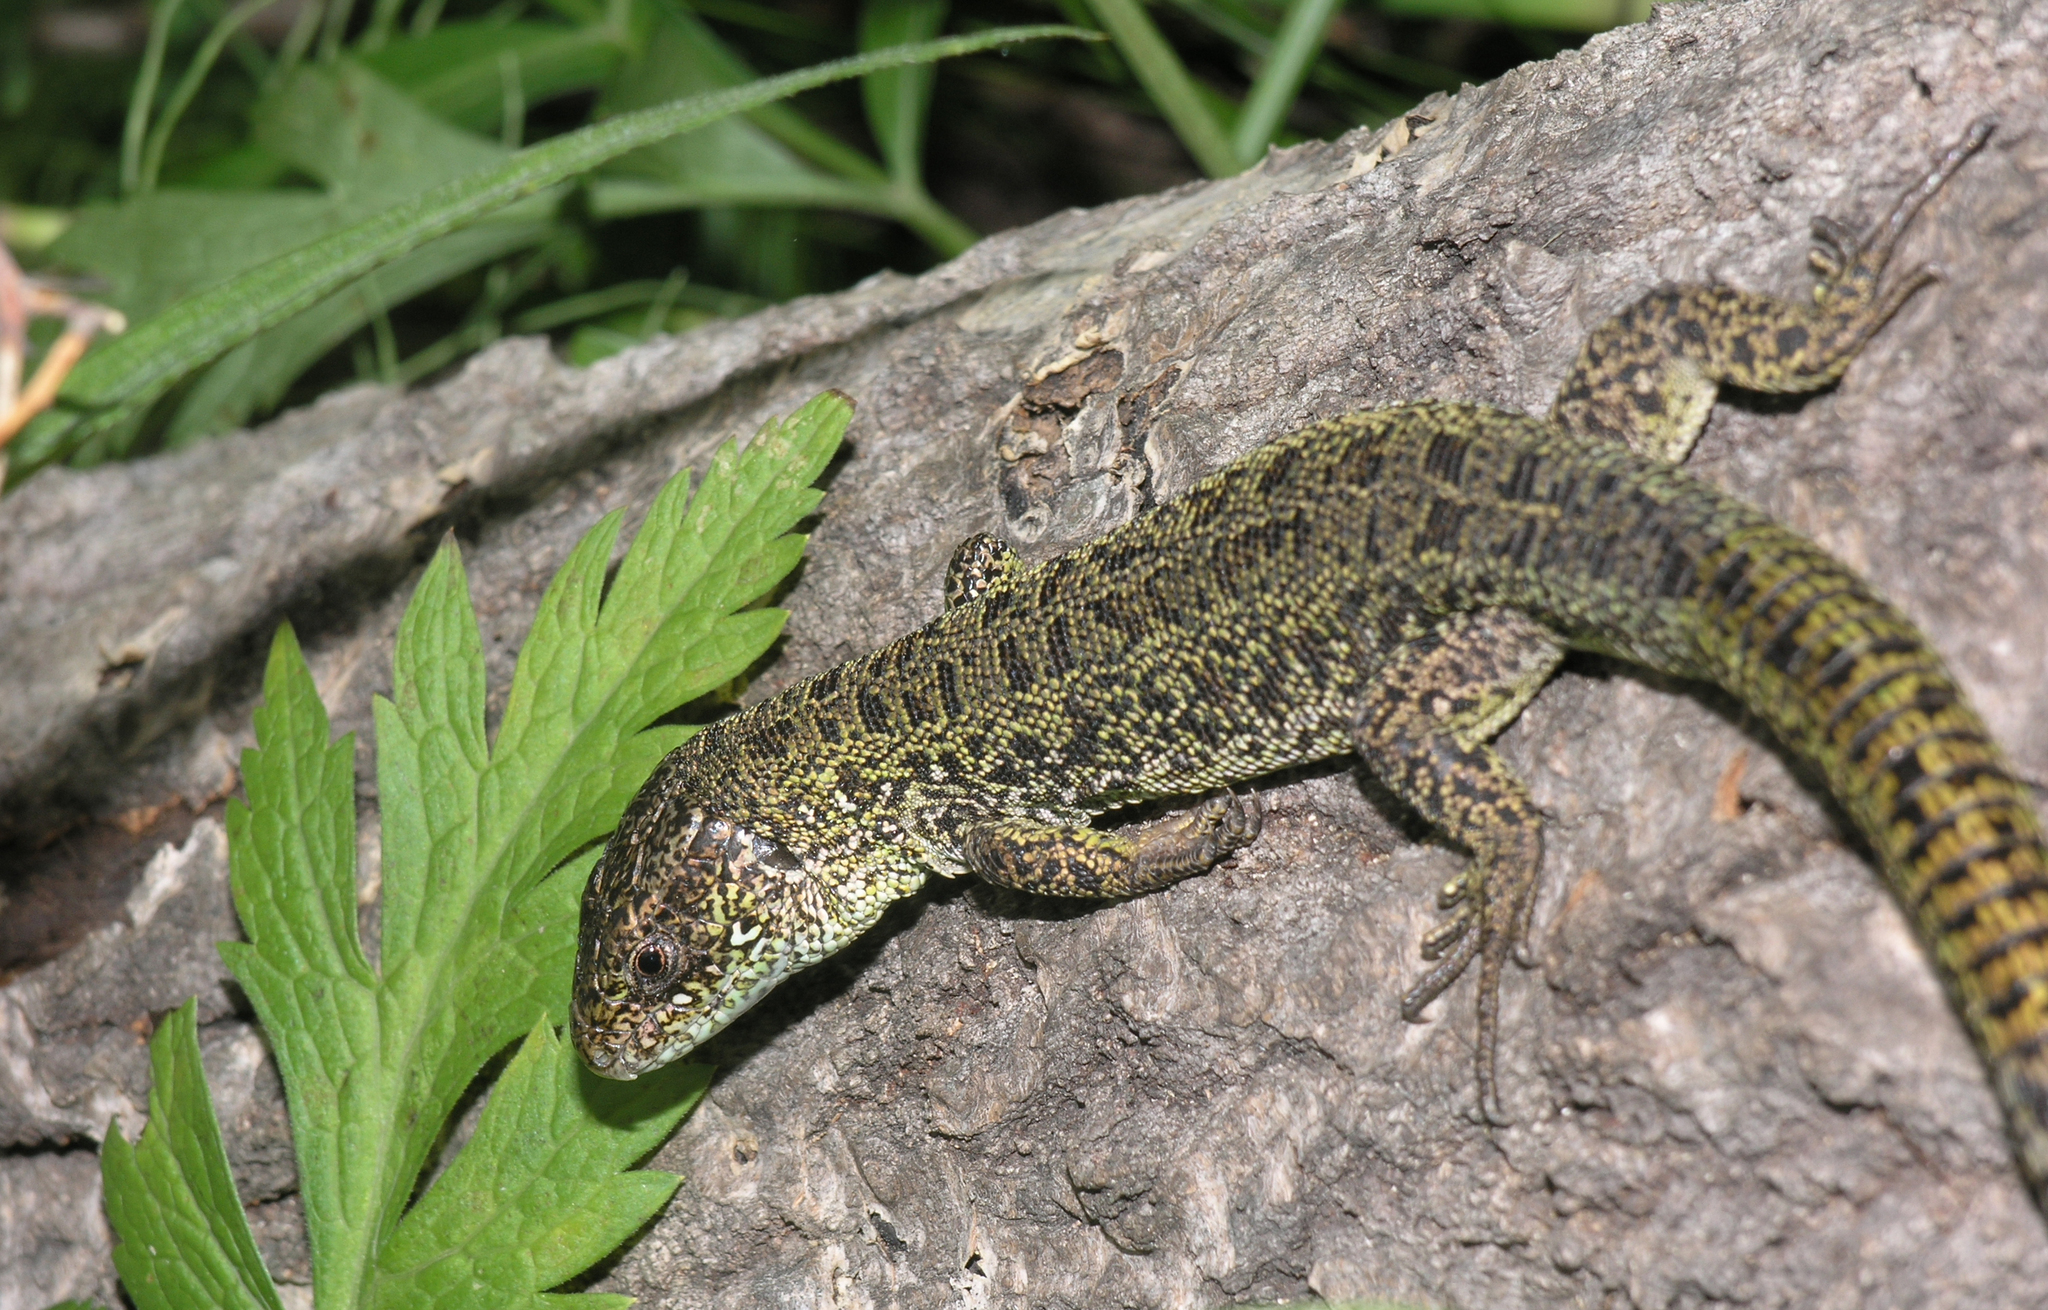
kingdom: Animalia
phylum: Chordata
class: Squamata
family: Lacertidae
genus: Lacerta
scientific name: Lacerta agilis
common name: Sand lizard
